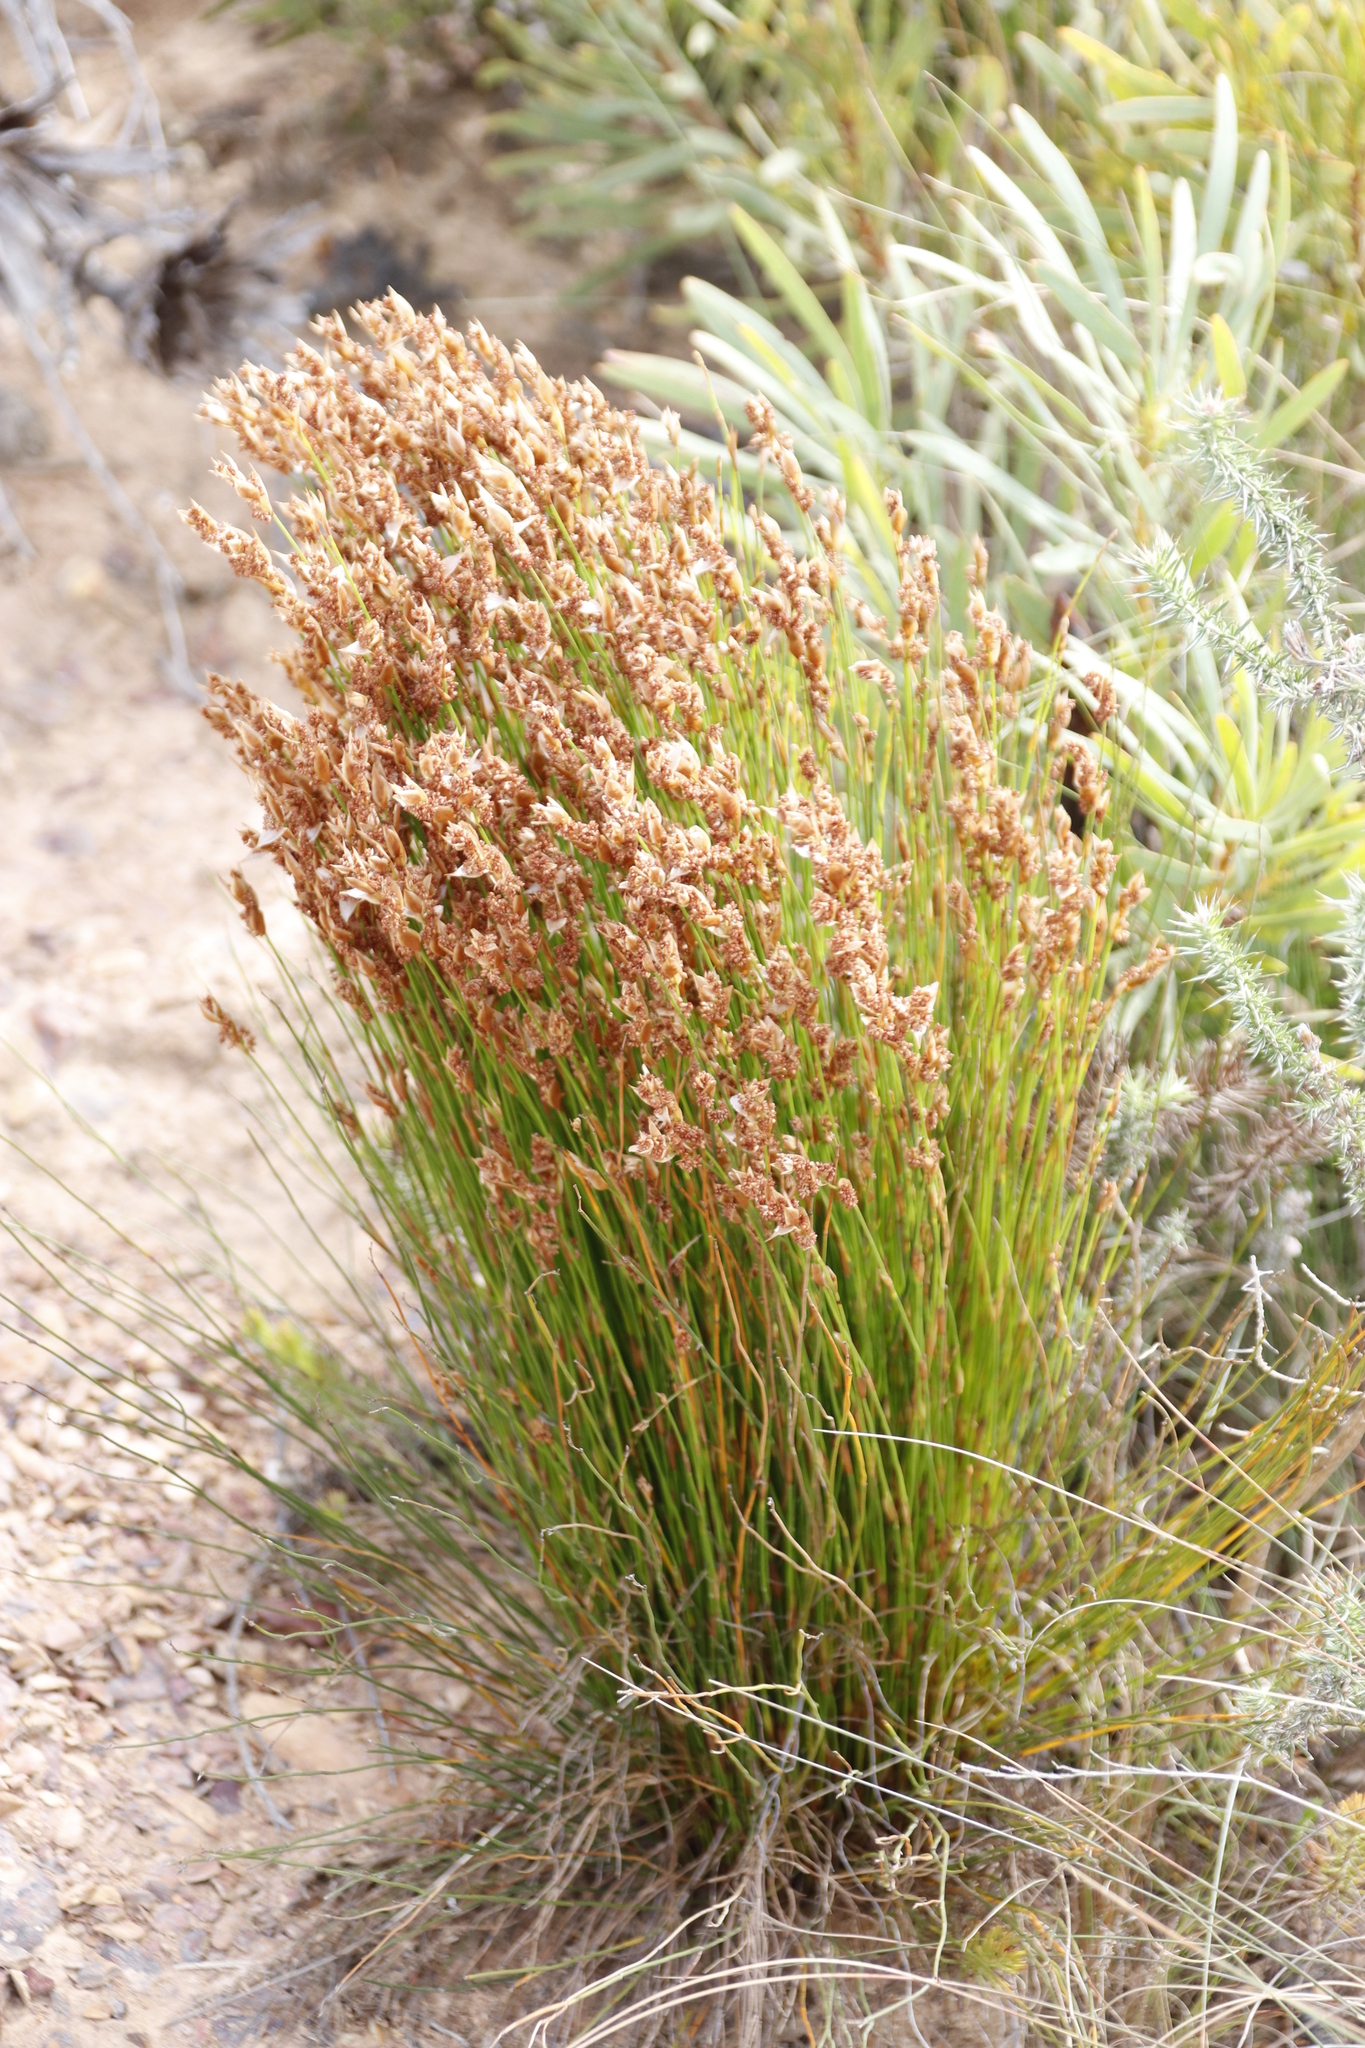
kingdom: Plantae
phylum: Tracheophyta
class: Liliopsida
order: Poales
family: Restionaceae
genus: Elegia
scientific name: Elegia filacea
